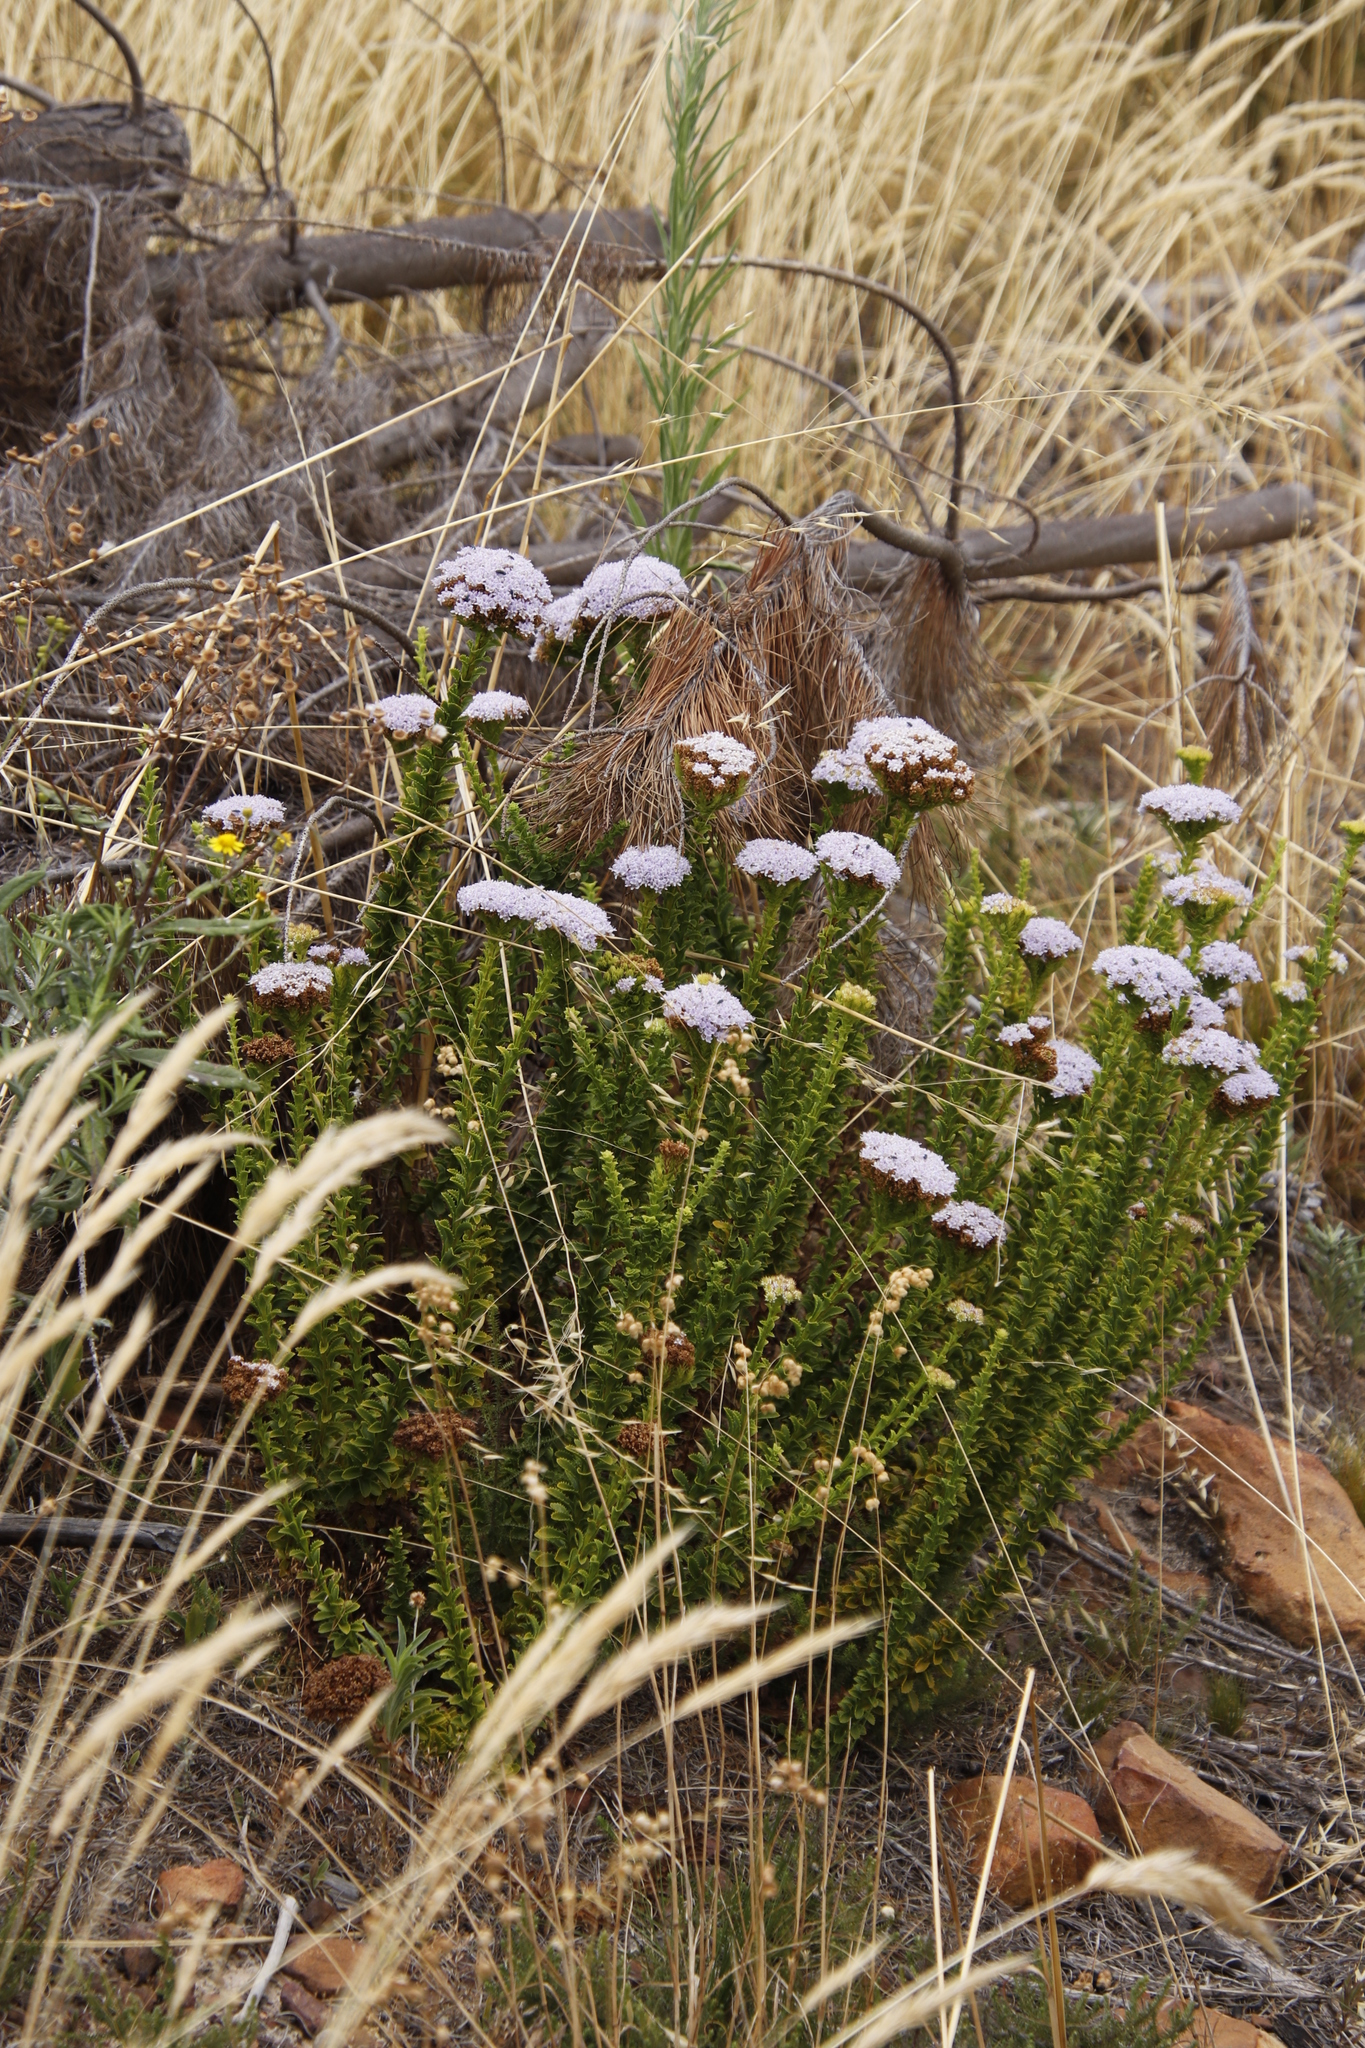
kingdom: Plantae
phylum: Tracheophyta
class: Magnoliopsida
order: Lamiales
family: Scrophulariaceae
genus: Pseudoselago
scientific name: Pseudoselago serrata
